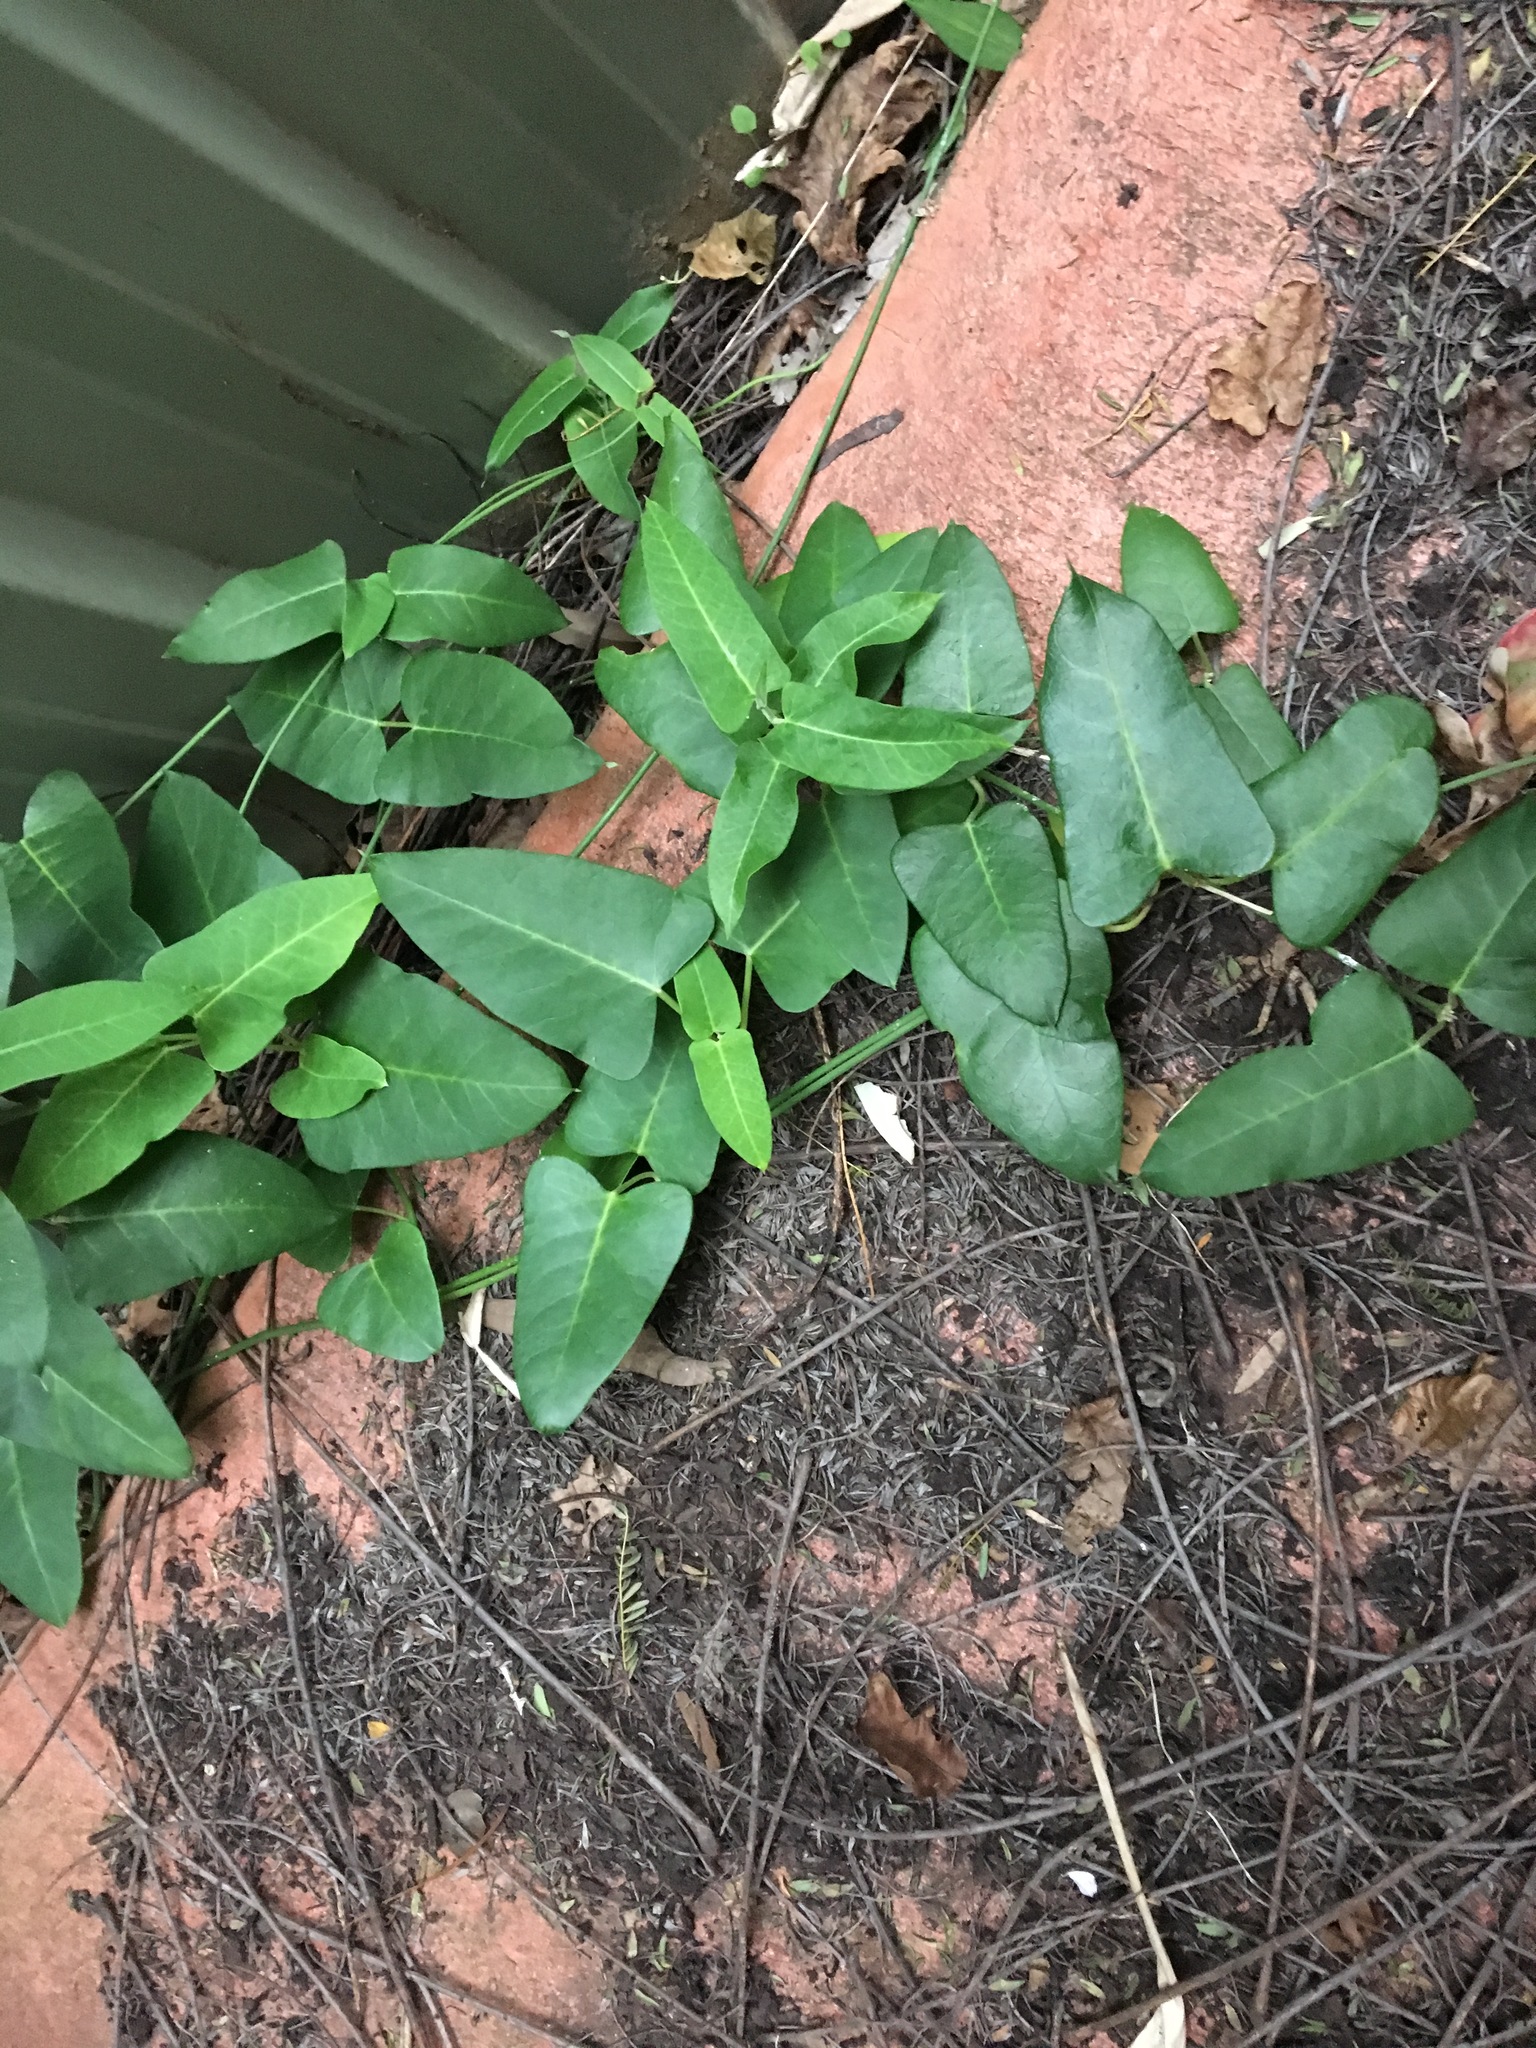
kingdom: Plantae
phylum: Tracheophyta
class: Magnoliopsida
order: Gentianales
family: Apocynaceae
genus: Araujia
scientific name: Araujia sericifera
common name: White bladderflower
